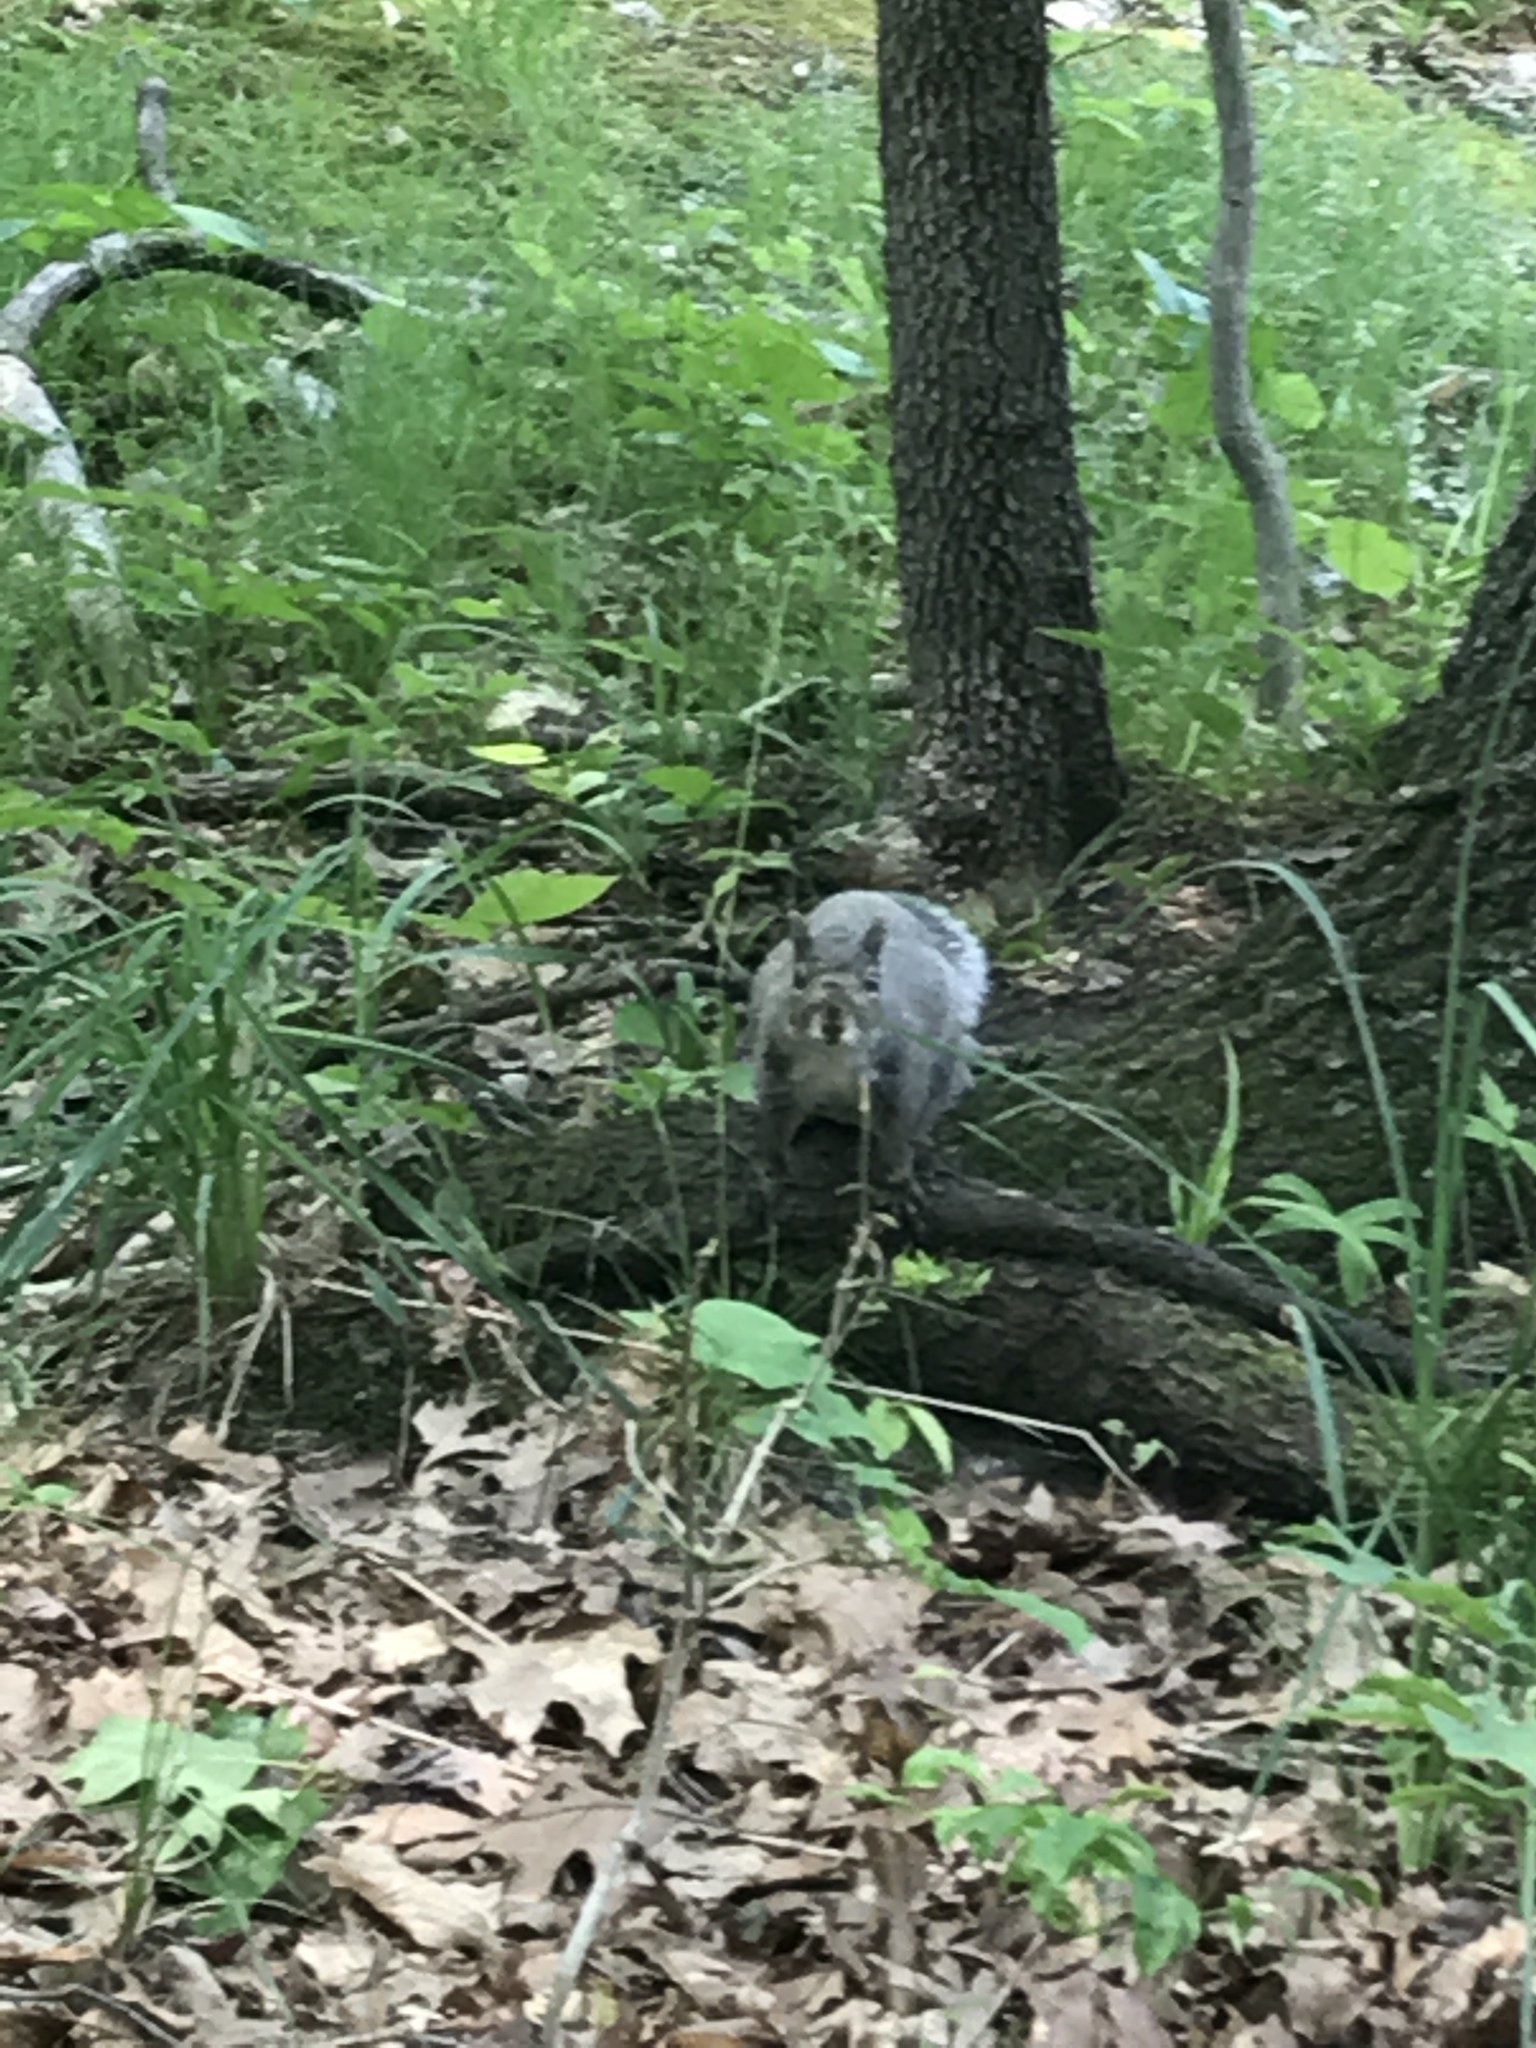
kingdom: Animalia
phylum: Chordata
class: Mammalia
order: Rodentia
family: Sciuridae
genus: Sciurus
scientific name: Sciurus carolinensis
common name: Eastern gray squirrel
